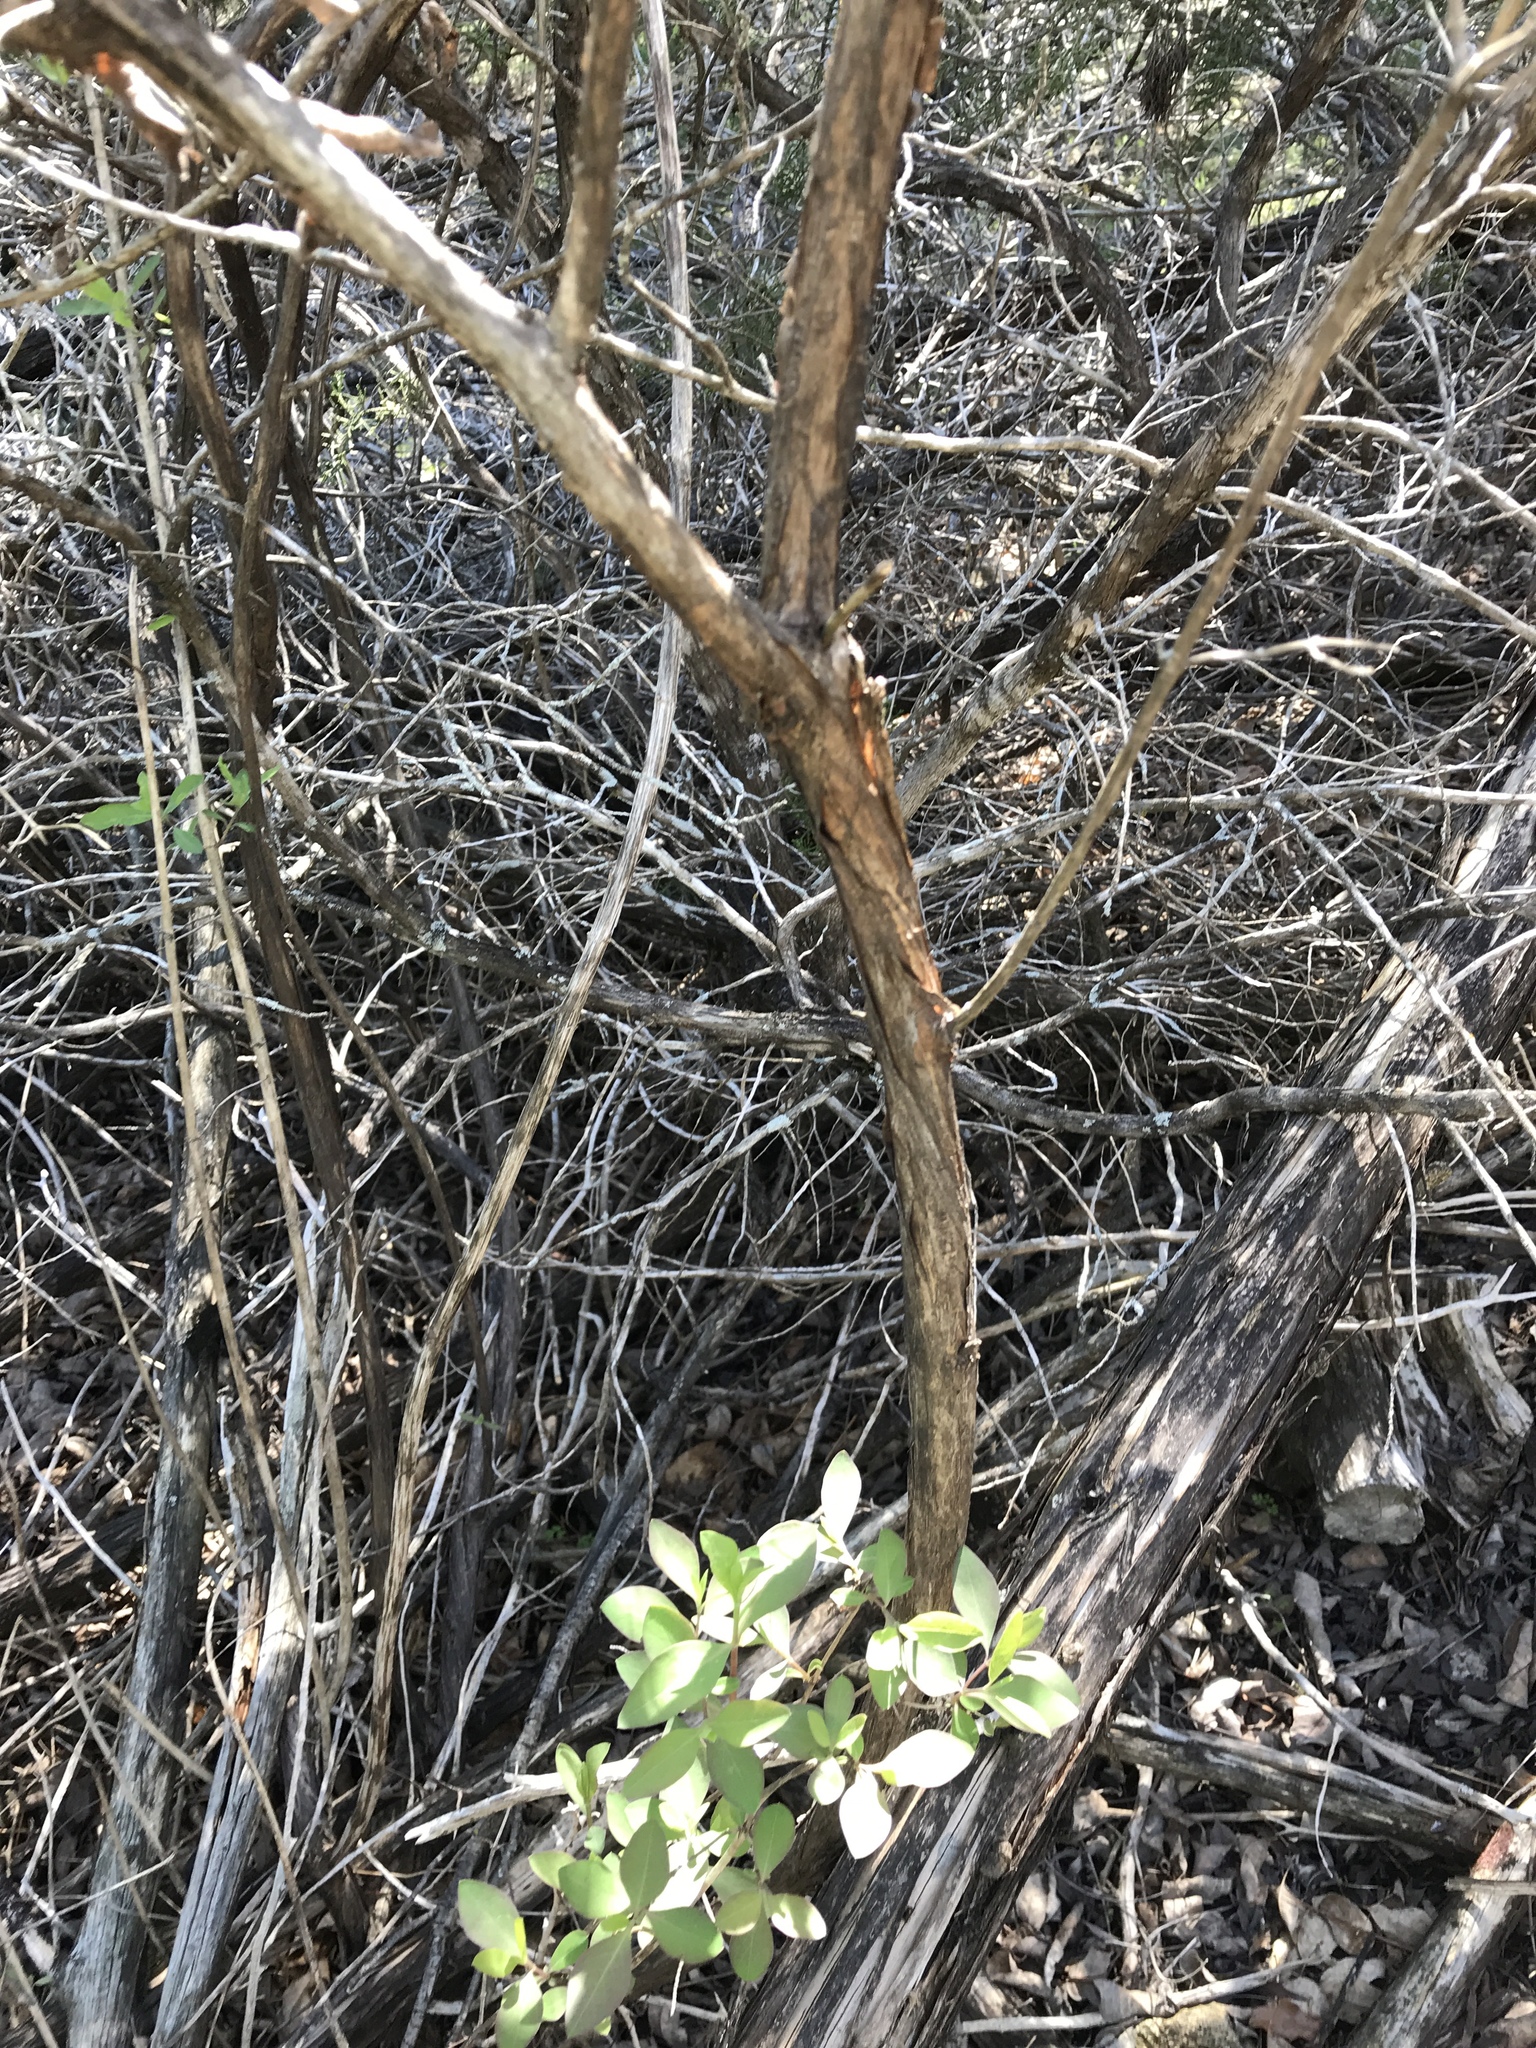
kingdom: Plantae
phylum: Tracheophyta
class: Magnoliopsida
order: Dipsacales
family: Caprifoliaceae
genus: Lonicera
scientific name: Lonicera albiflora
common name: White honeysuckle
